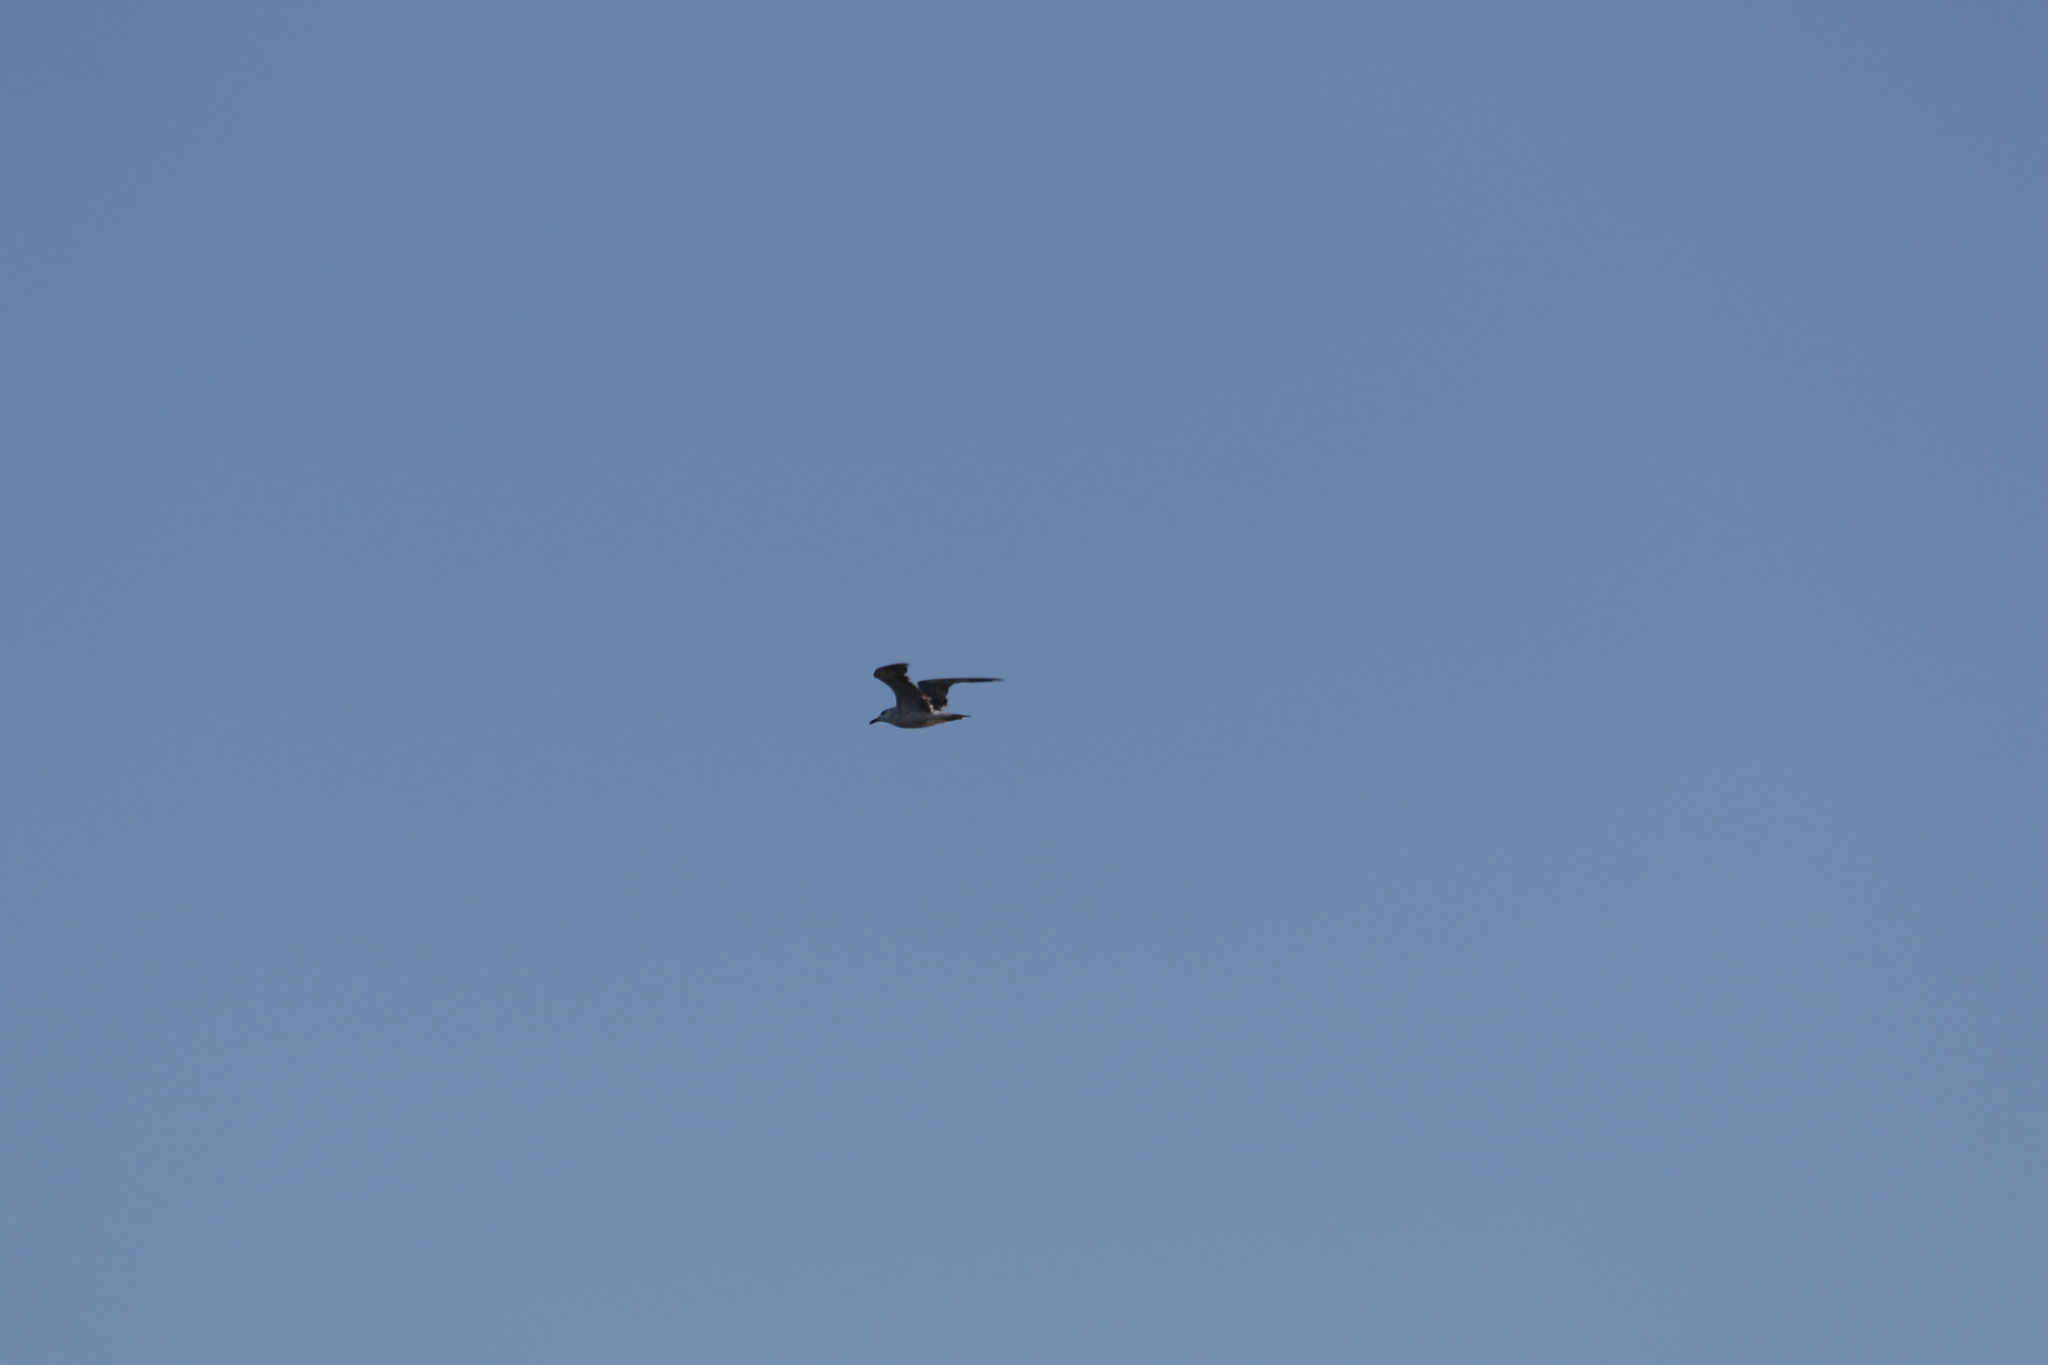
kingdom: Animalia
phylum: Chordata
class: Aves
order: Charadriiformes
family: Laridae
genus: Larus
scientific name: Larus fuscus
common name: Lesser black-backed gull
